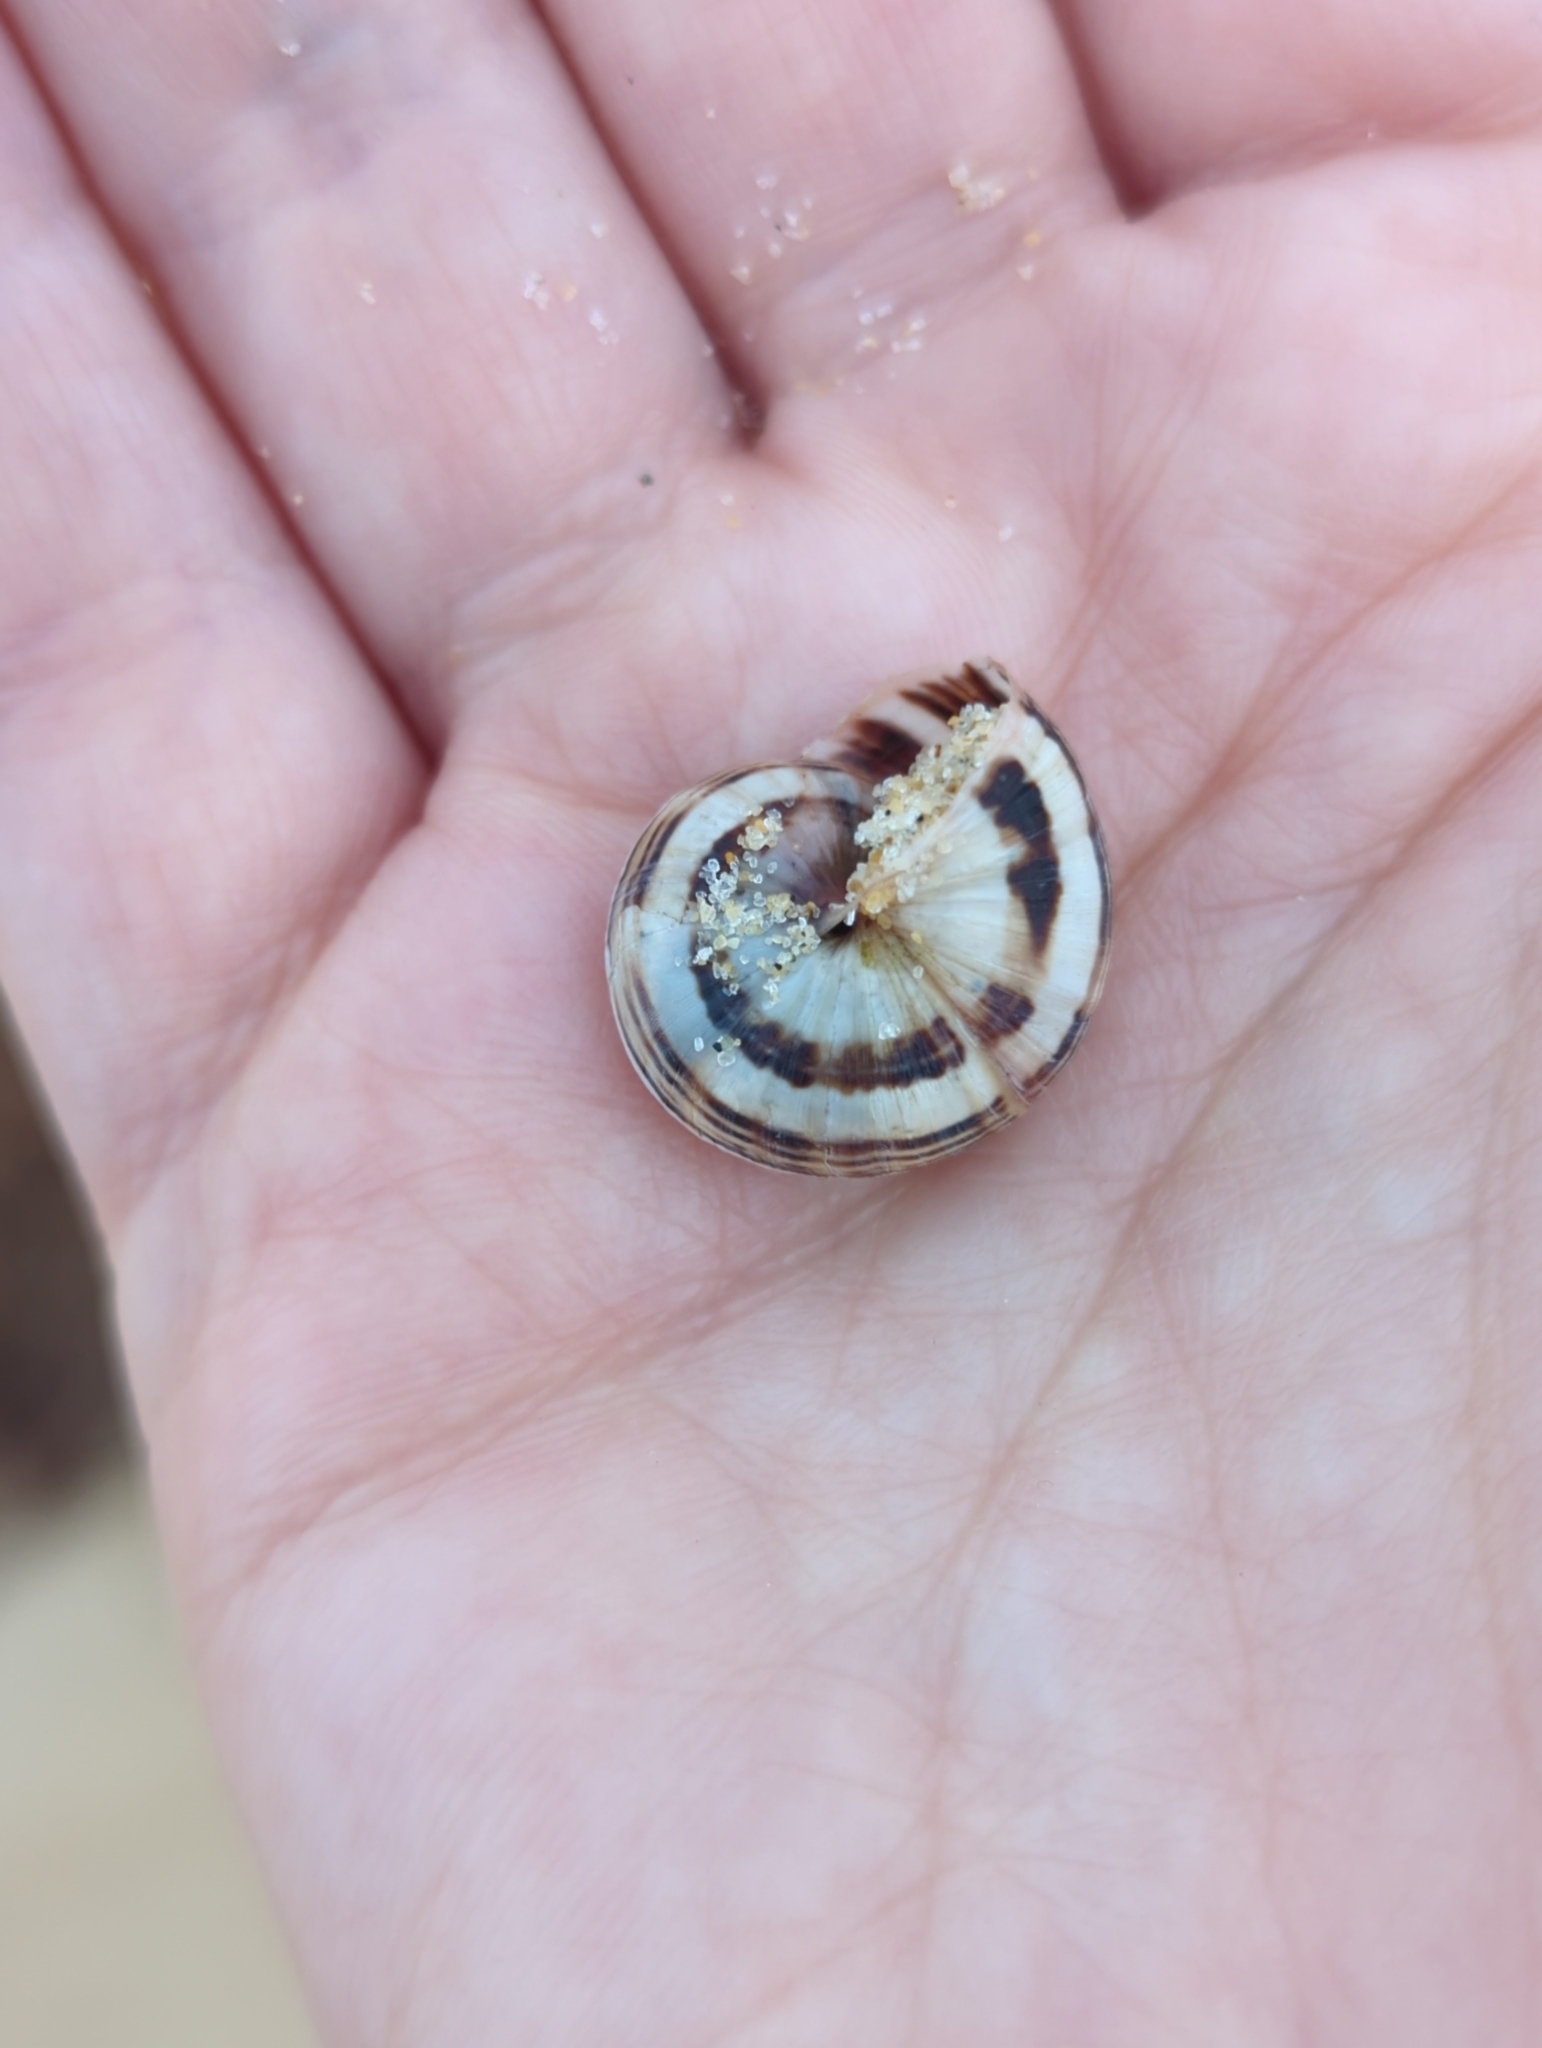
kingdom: Animalia
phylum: Mollusca
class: Gastropoda
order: Stylommatophora
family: Helicidae
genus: Theba
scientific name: Theba pisana
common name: White snail
